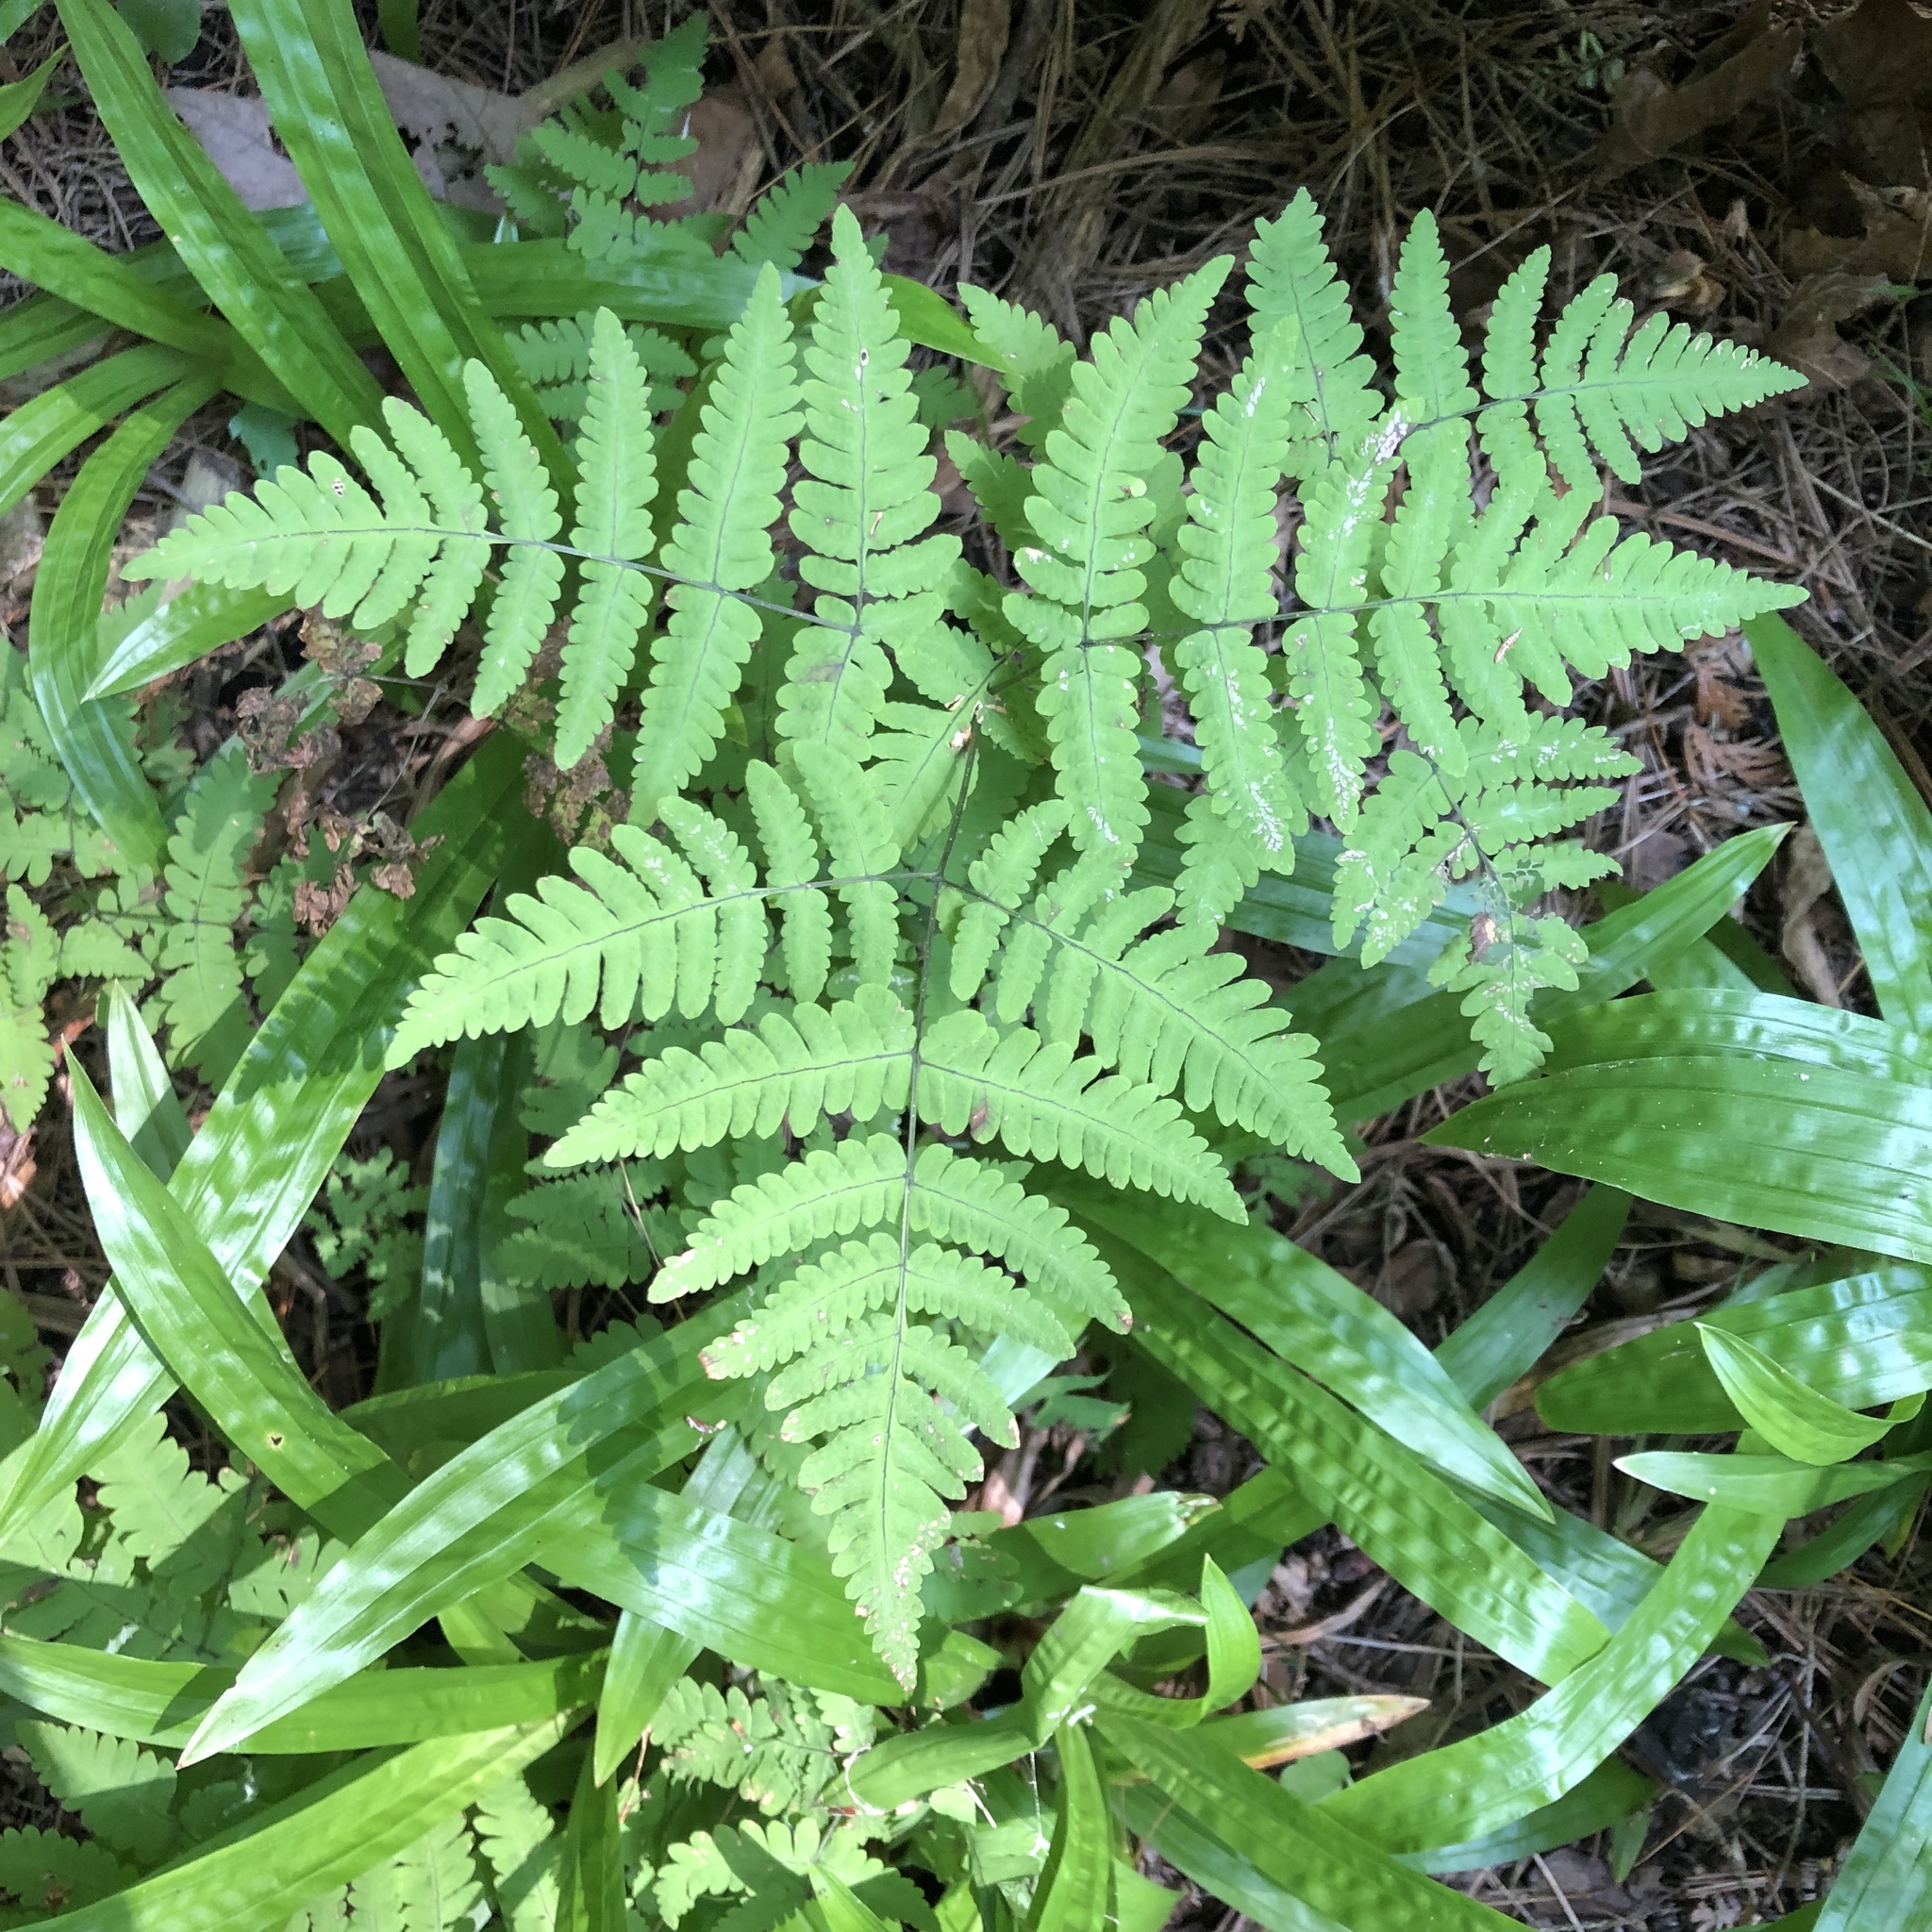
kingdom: Plantae
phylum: Tracheophyta
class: Polypodiopsida
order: Polypodiales
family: Cystopteridaceae
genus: Gymnocarpium
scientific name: Gymnocarpium dryopteris
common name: Oak fern
